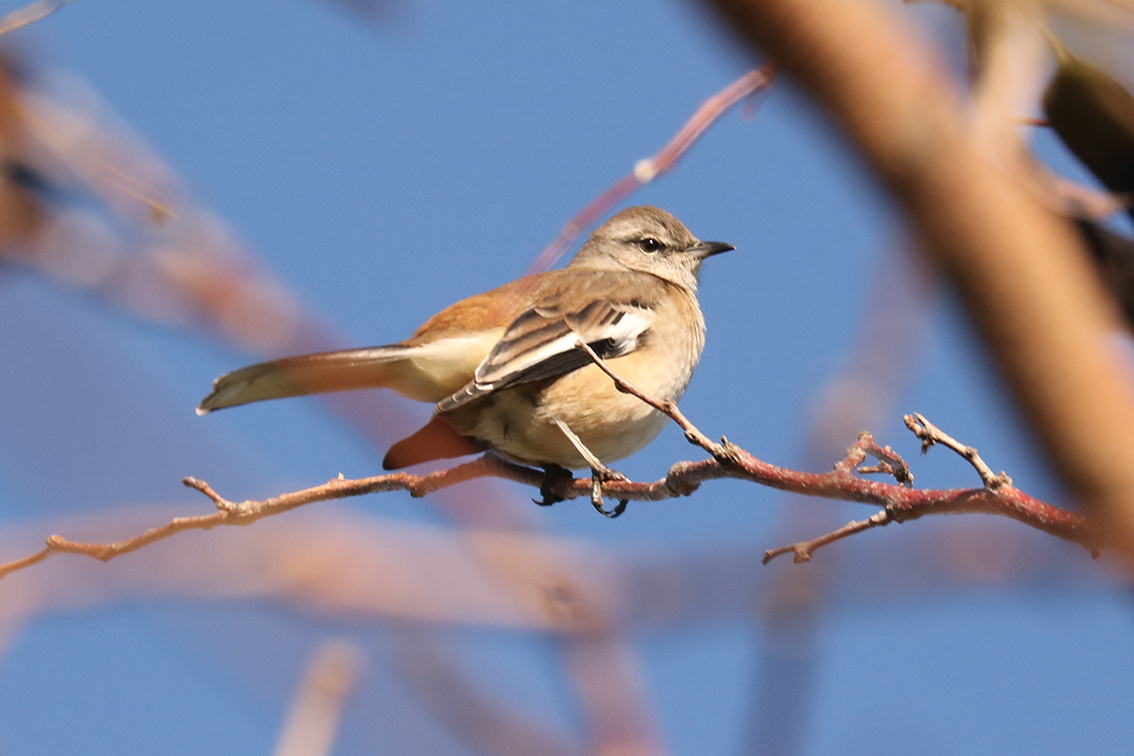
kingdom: Animalia
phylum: Chordata
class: Aves
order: Passeriformes
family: Mimidae
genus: Mimus
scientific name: Mimus triurus
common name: White-banded mockingbird
